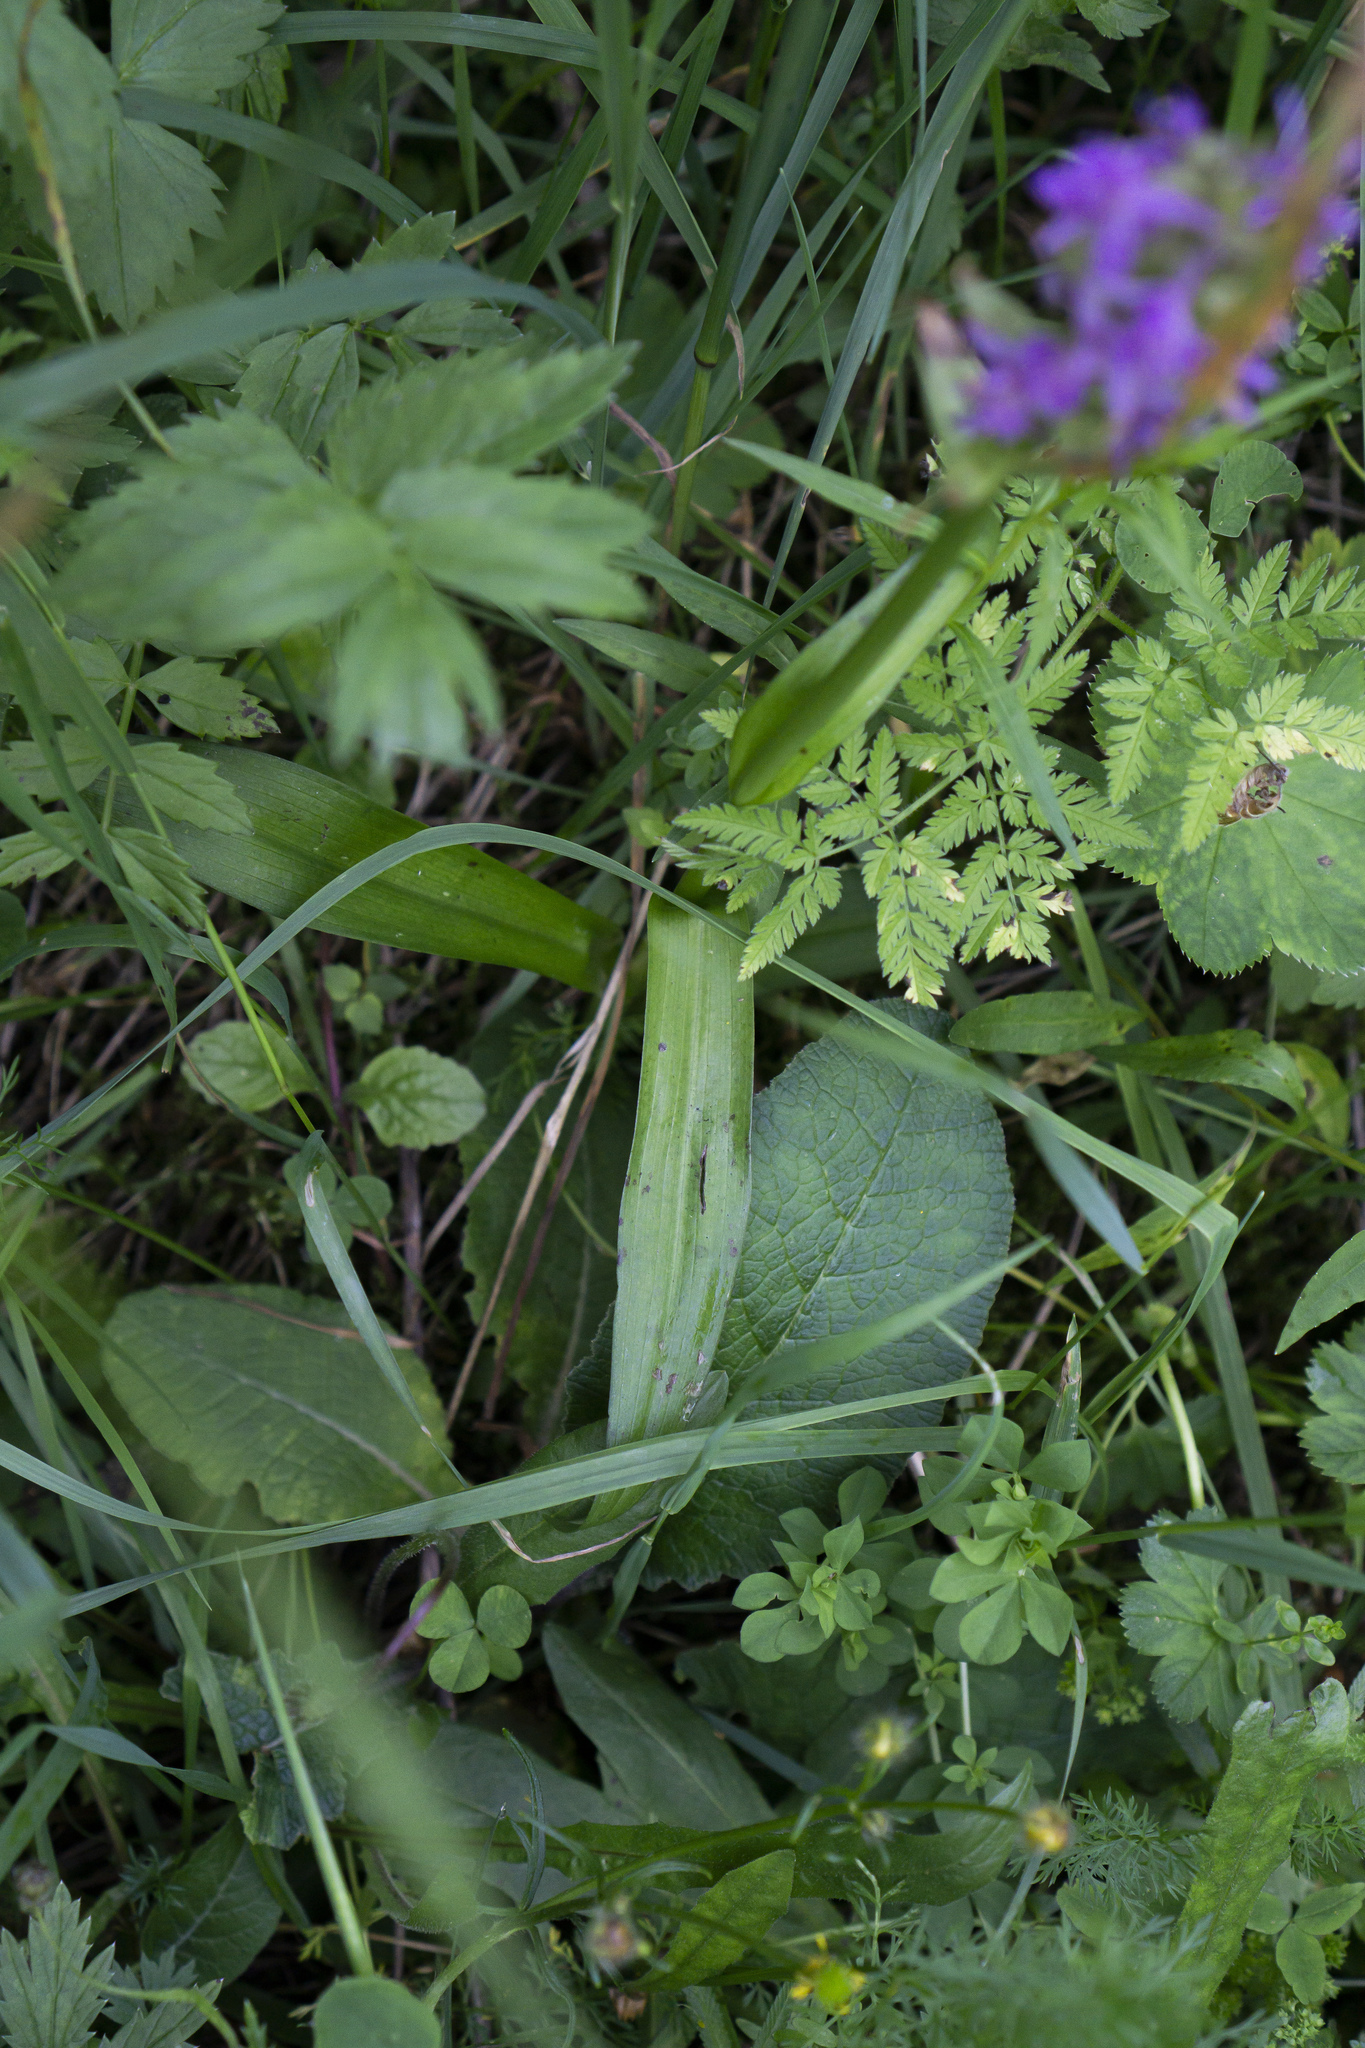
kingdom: Plantae
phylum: Tracheophyta
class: Liliopsida
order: Asparagales
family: Orchidaceae
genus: Dactylorhiza
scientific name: Dactylorhiza majalis
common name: Marsh orchid
